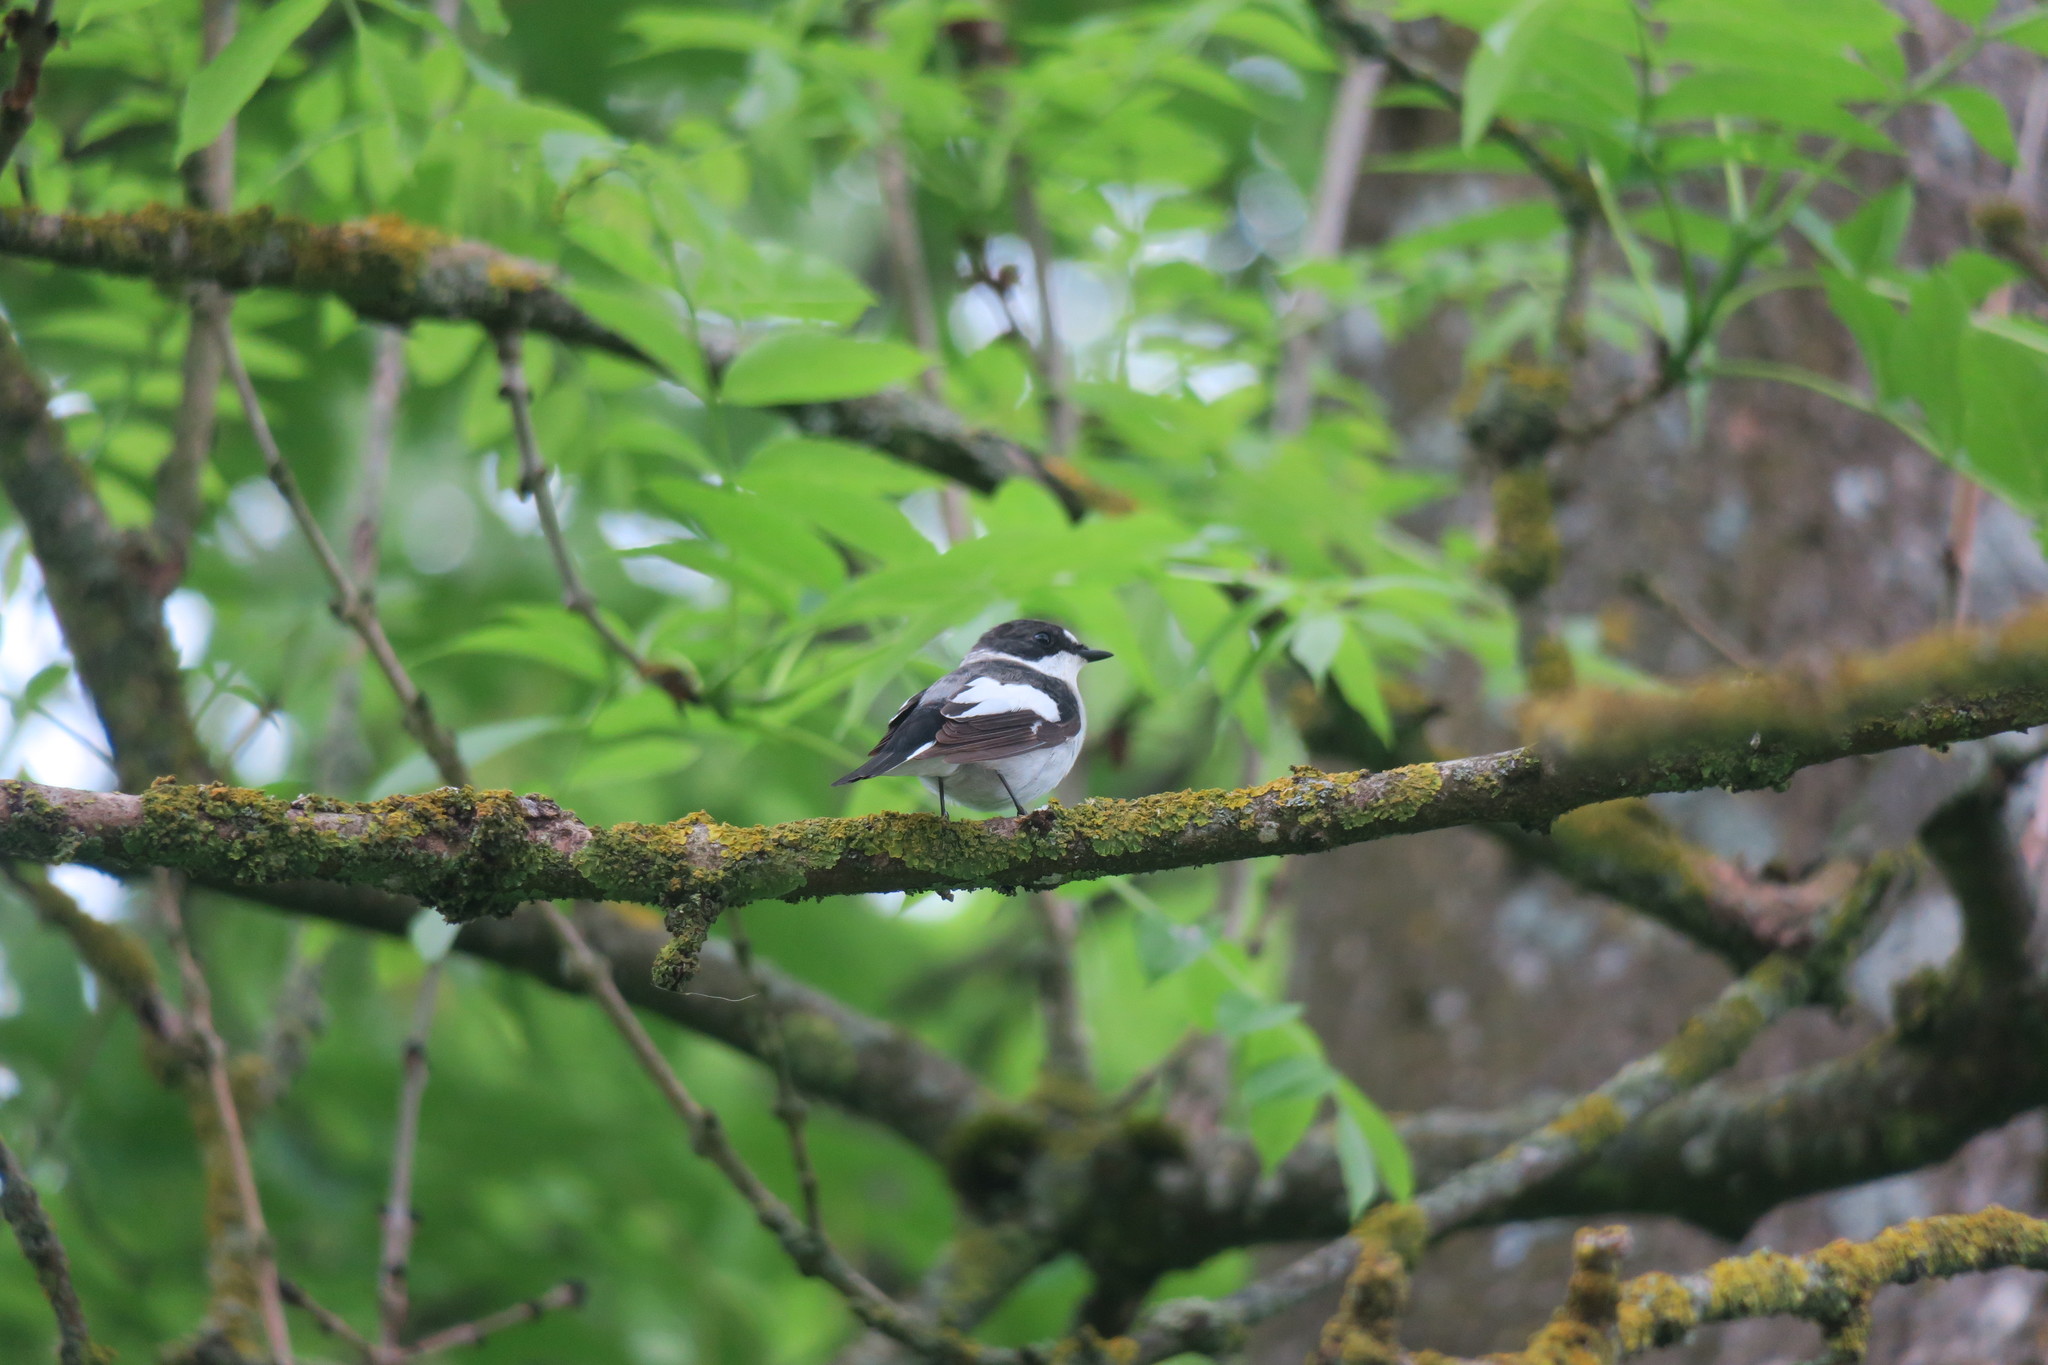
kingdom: Animalia
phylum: Chordata
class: Aves
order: Passeriformes
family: Muscicapidae
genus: Ficedula
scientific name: Ficedula albicollis
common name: Collared flycatcher
